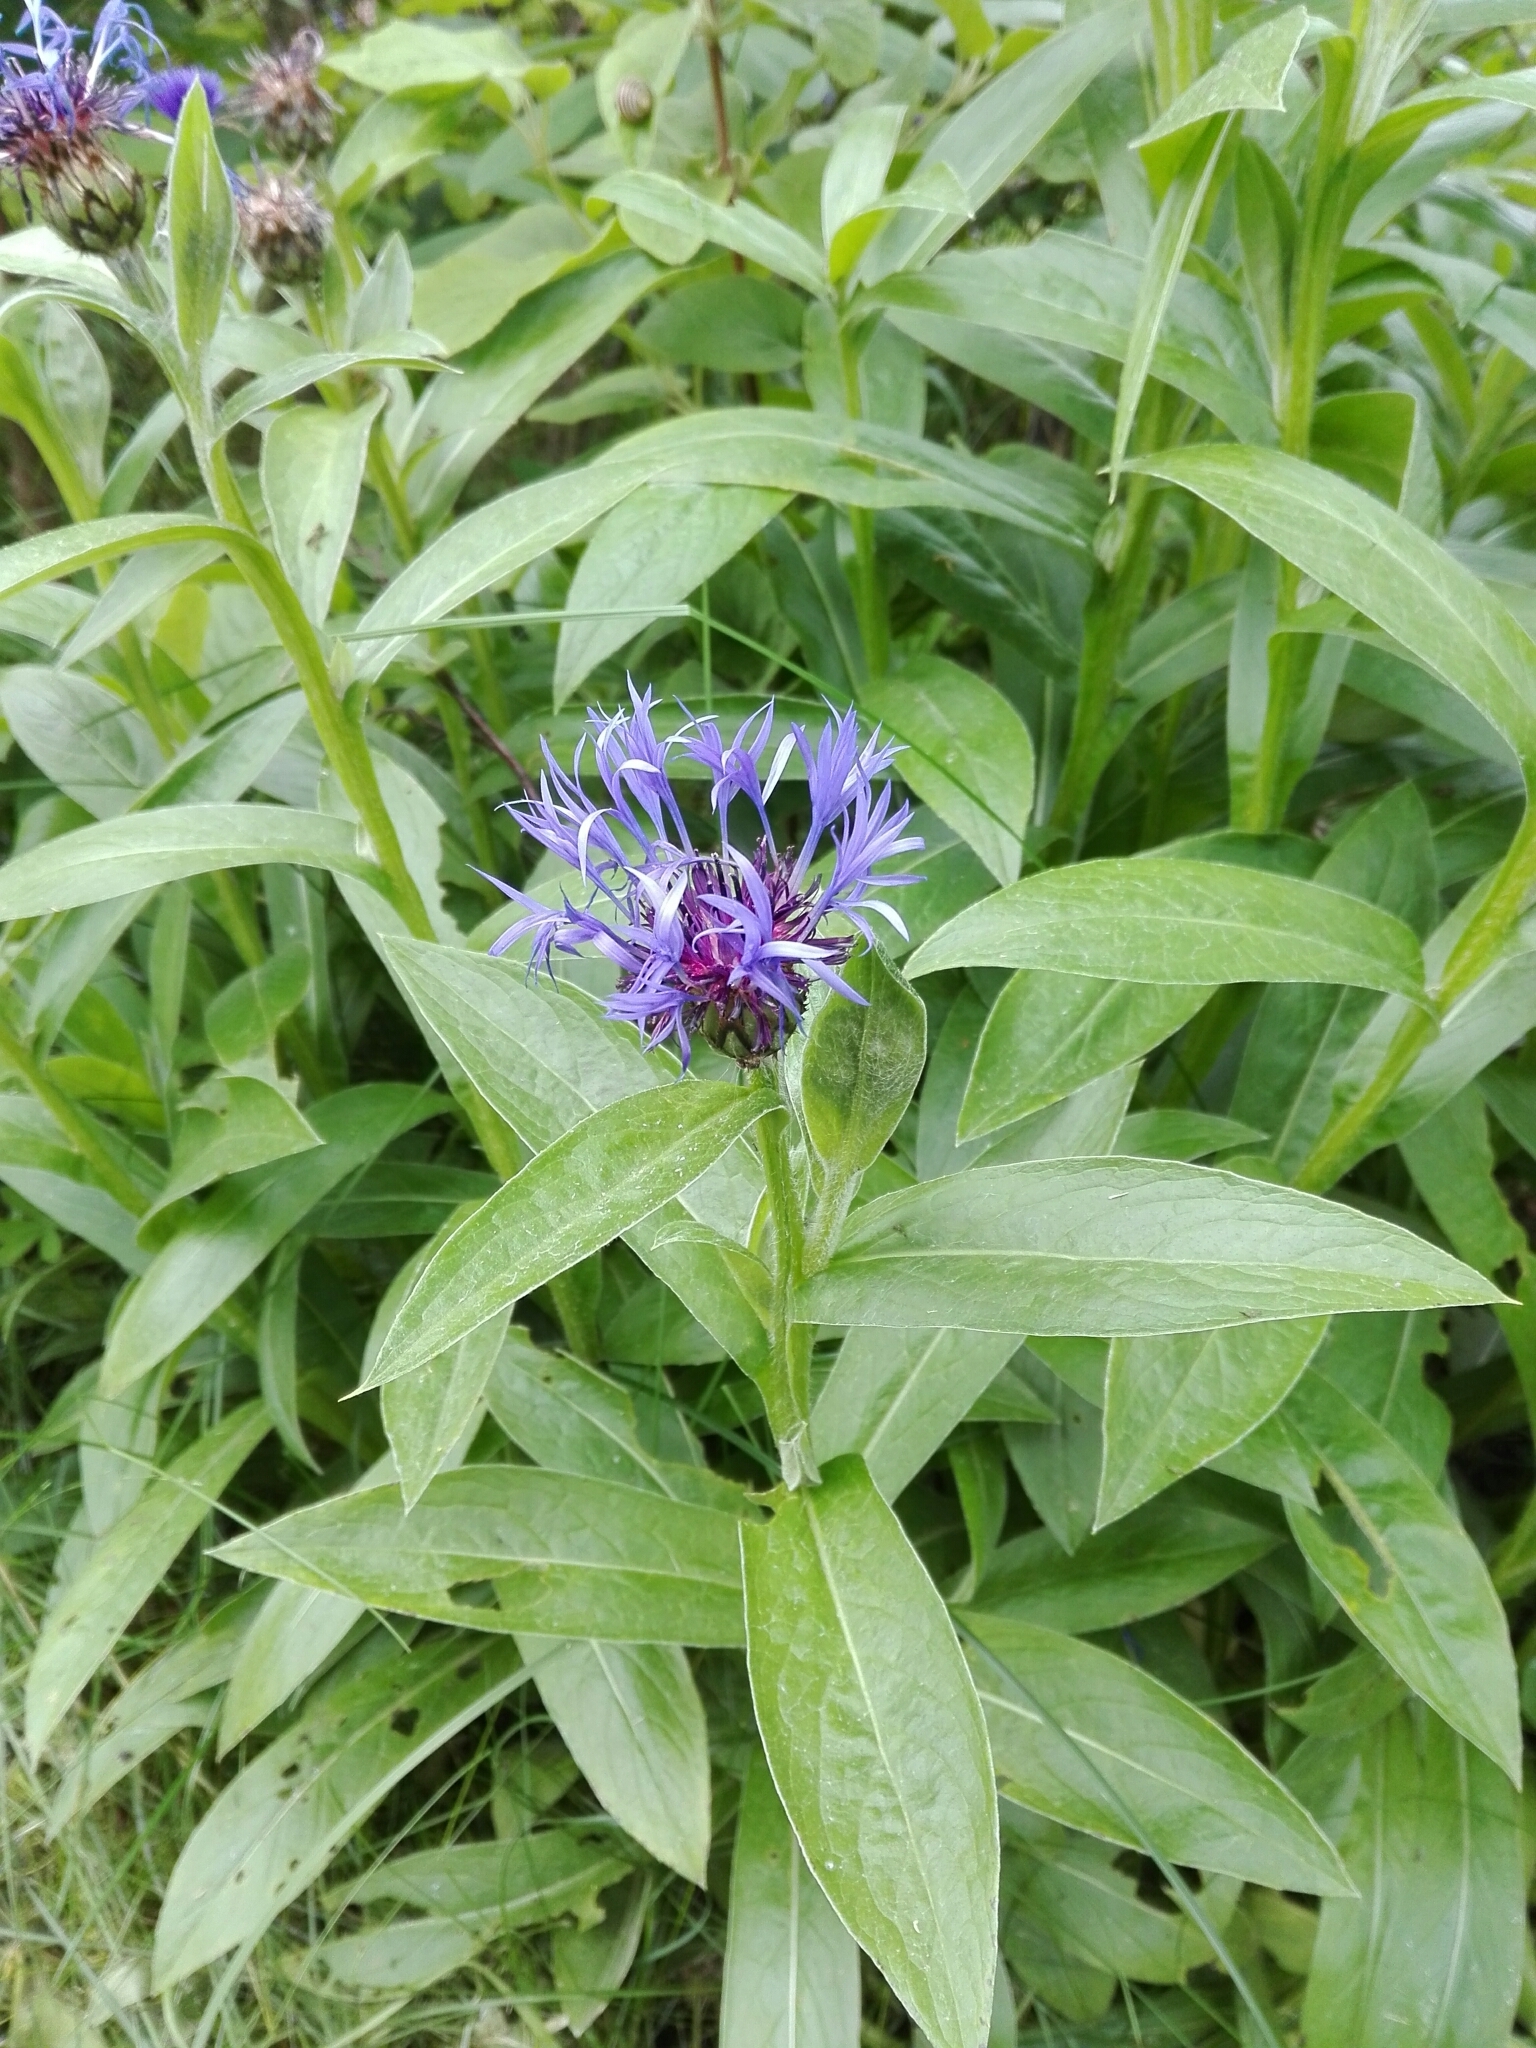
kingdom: Plantae
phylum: Tracheophyta
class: Magnoliopsida
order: Asterales
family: Asteraceae
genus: Centaurea
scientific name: Centaurea montana
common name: Perennial cornflower
